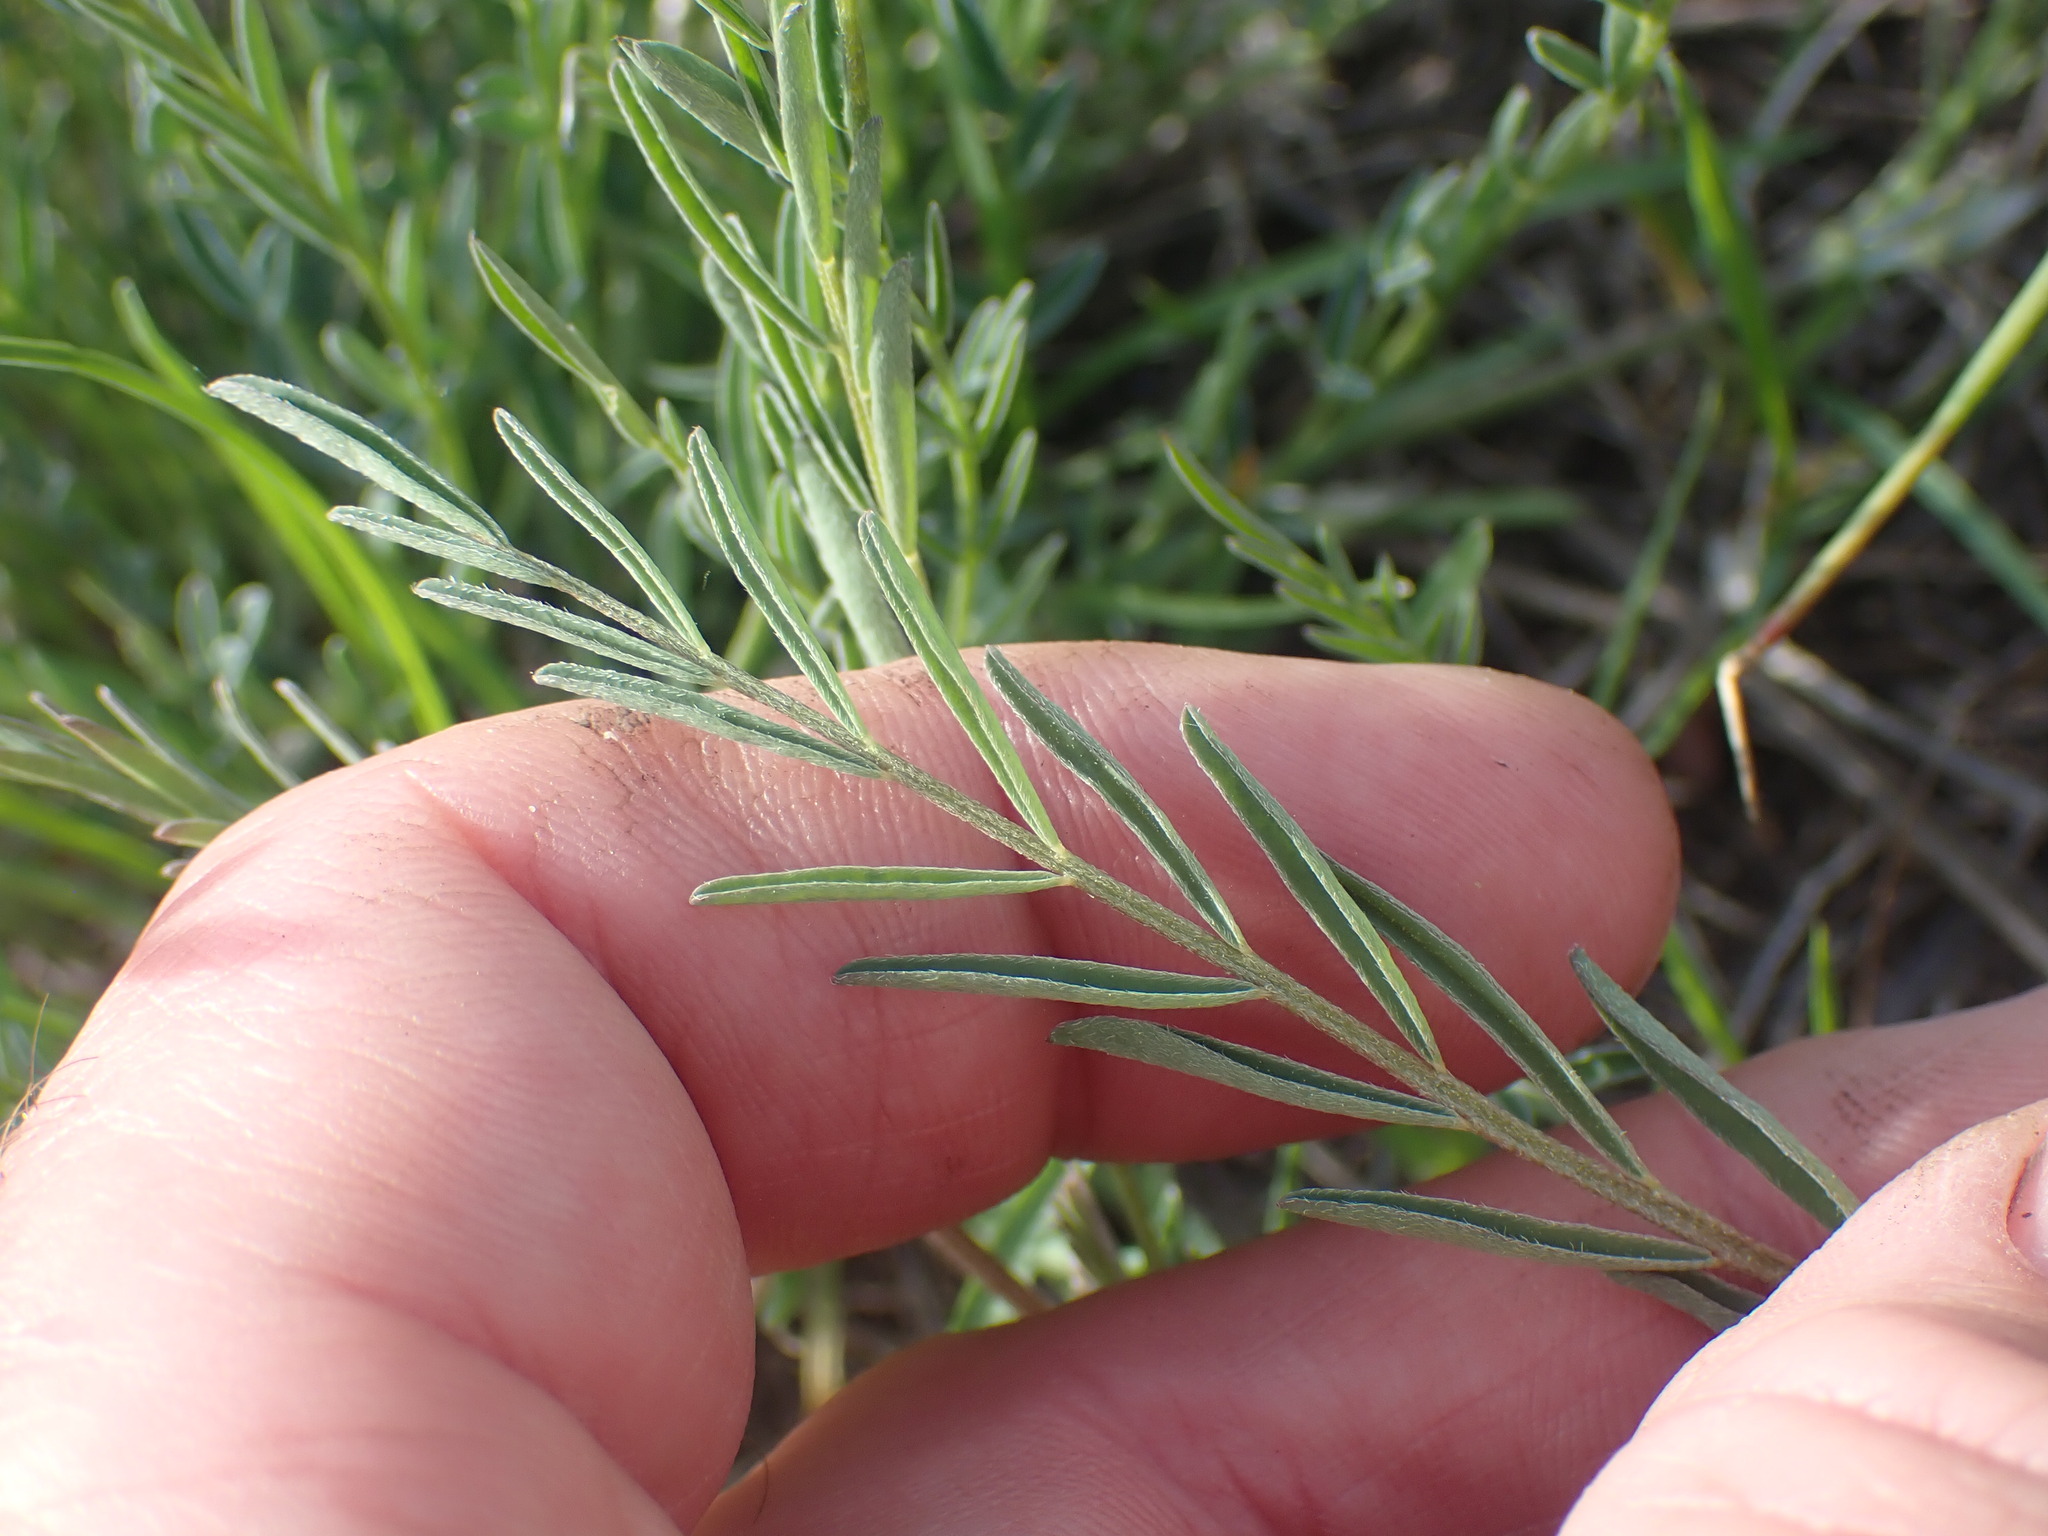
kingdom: Plantae
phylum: Tracheophyta
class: Magnoliopsida
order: Fabales
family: Fabaceae
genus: Astragalus
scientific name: Astragalus miser
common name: Timber milkvetch
